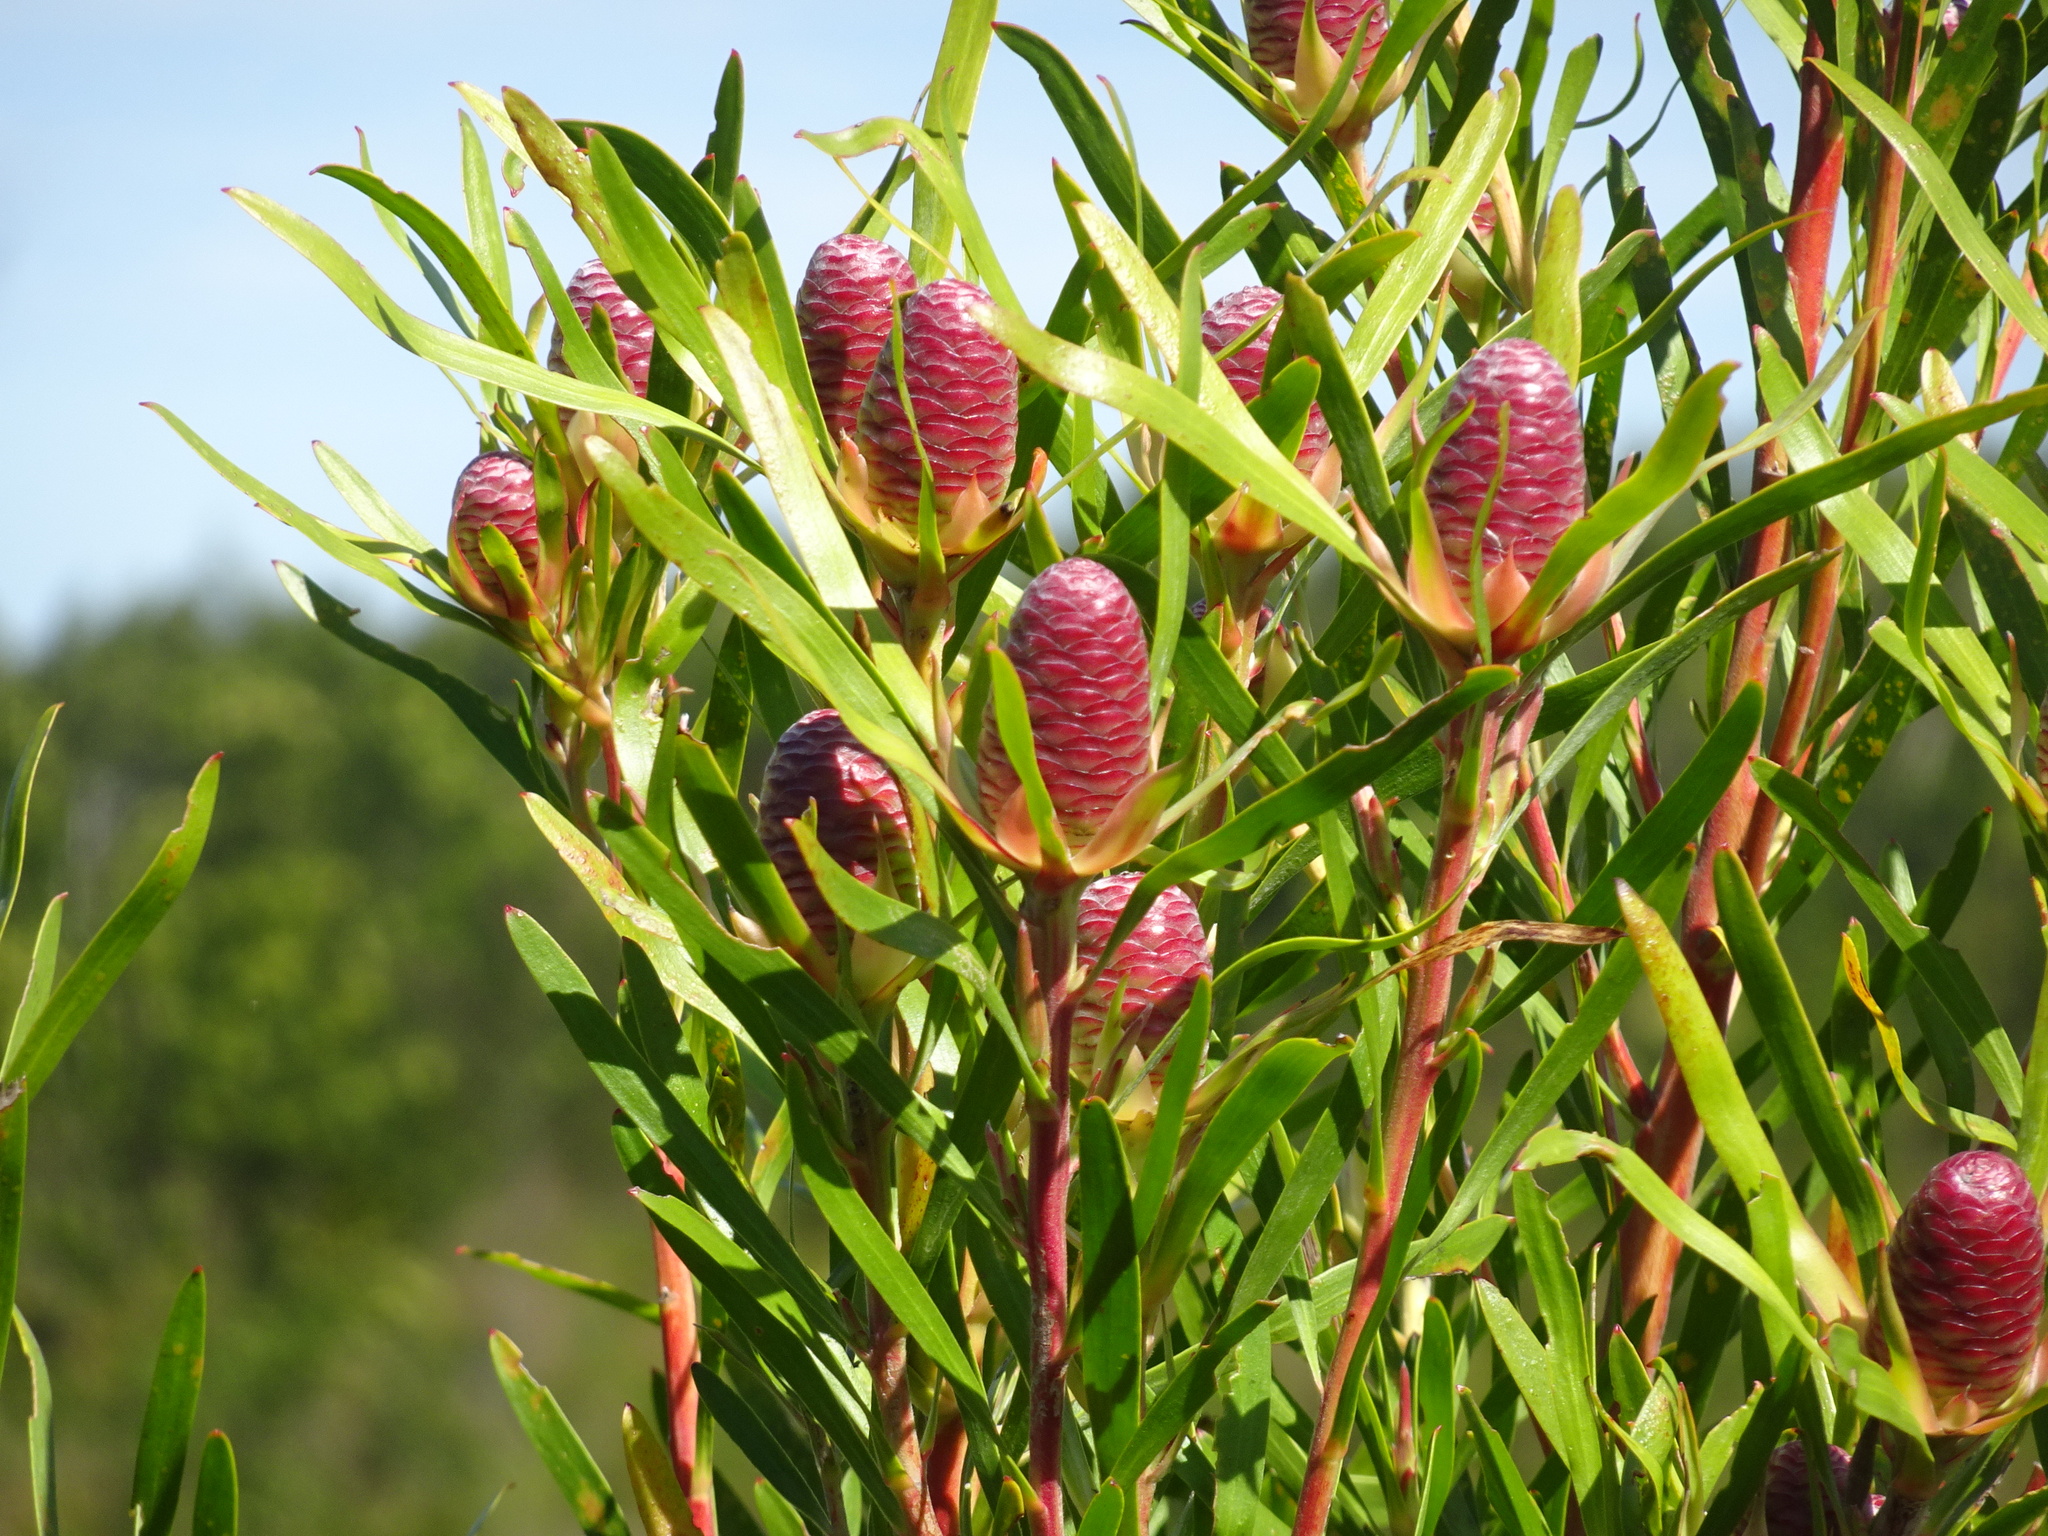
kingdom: Plantae
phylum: Tracheophyta
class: Magnoliopsida
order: Proteales
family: Proteaceae
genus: Leucadendron
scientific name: Leucadendron eucalyptifolium
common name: Gum-leaved conebush
